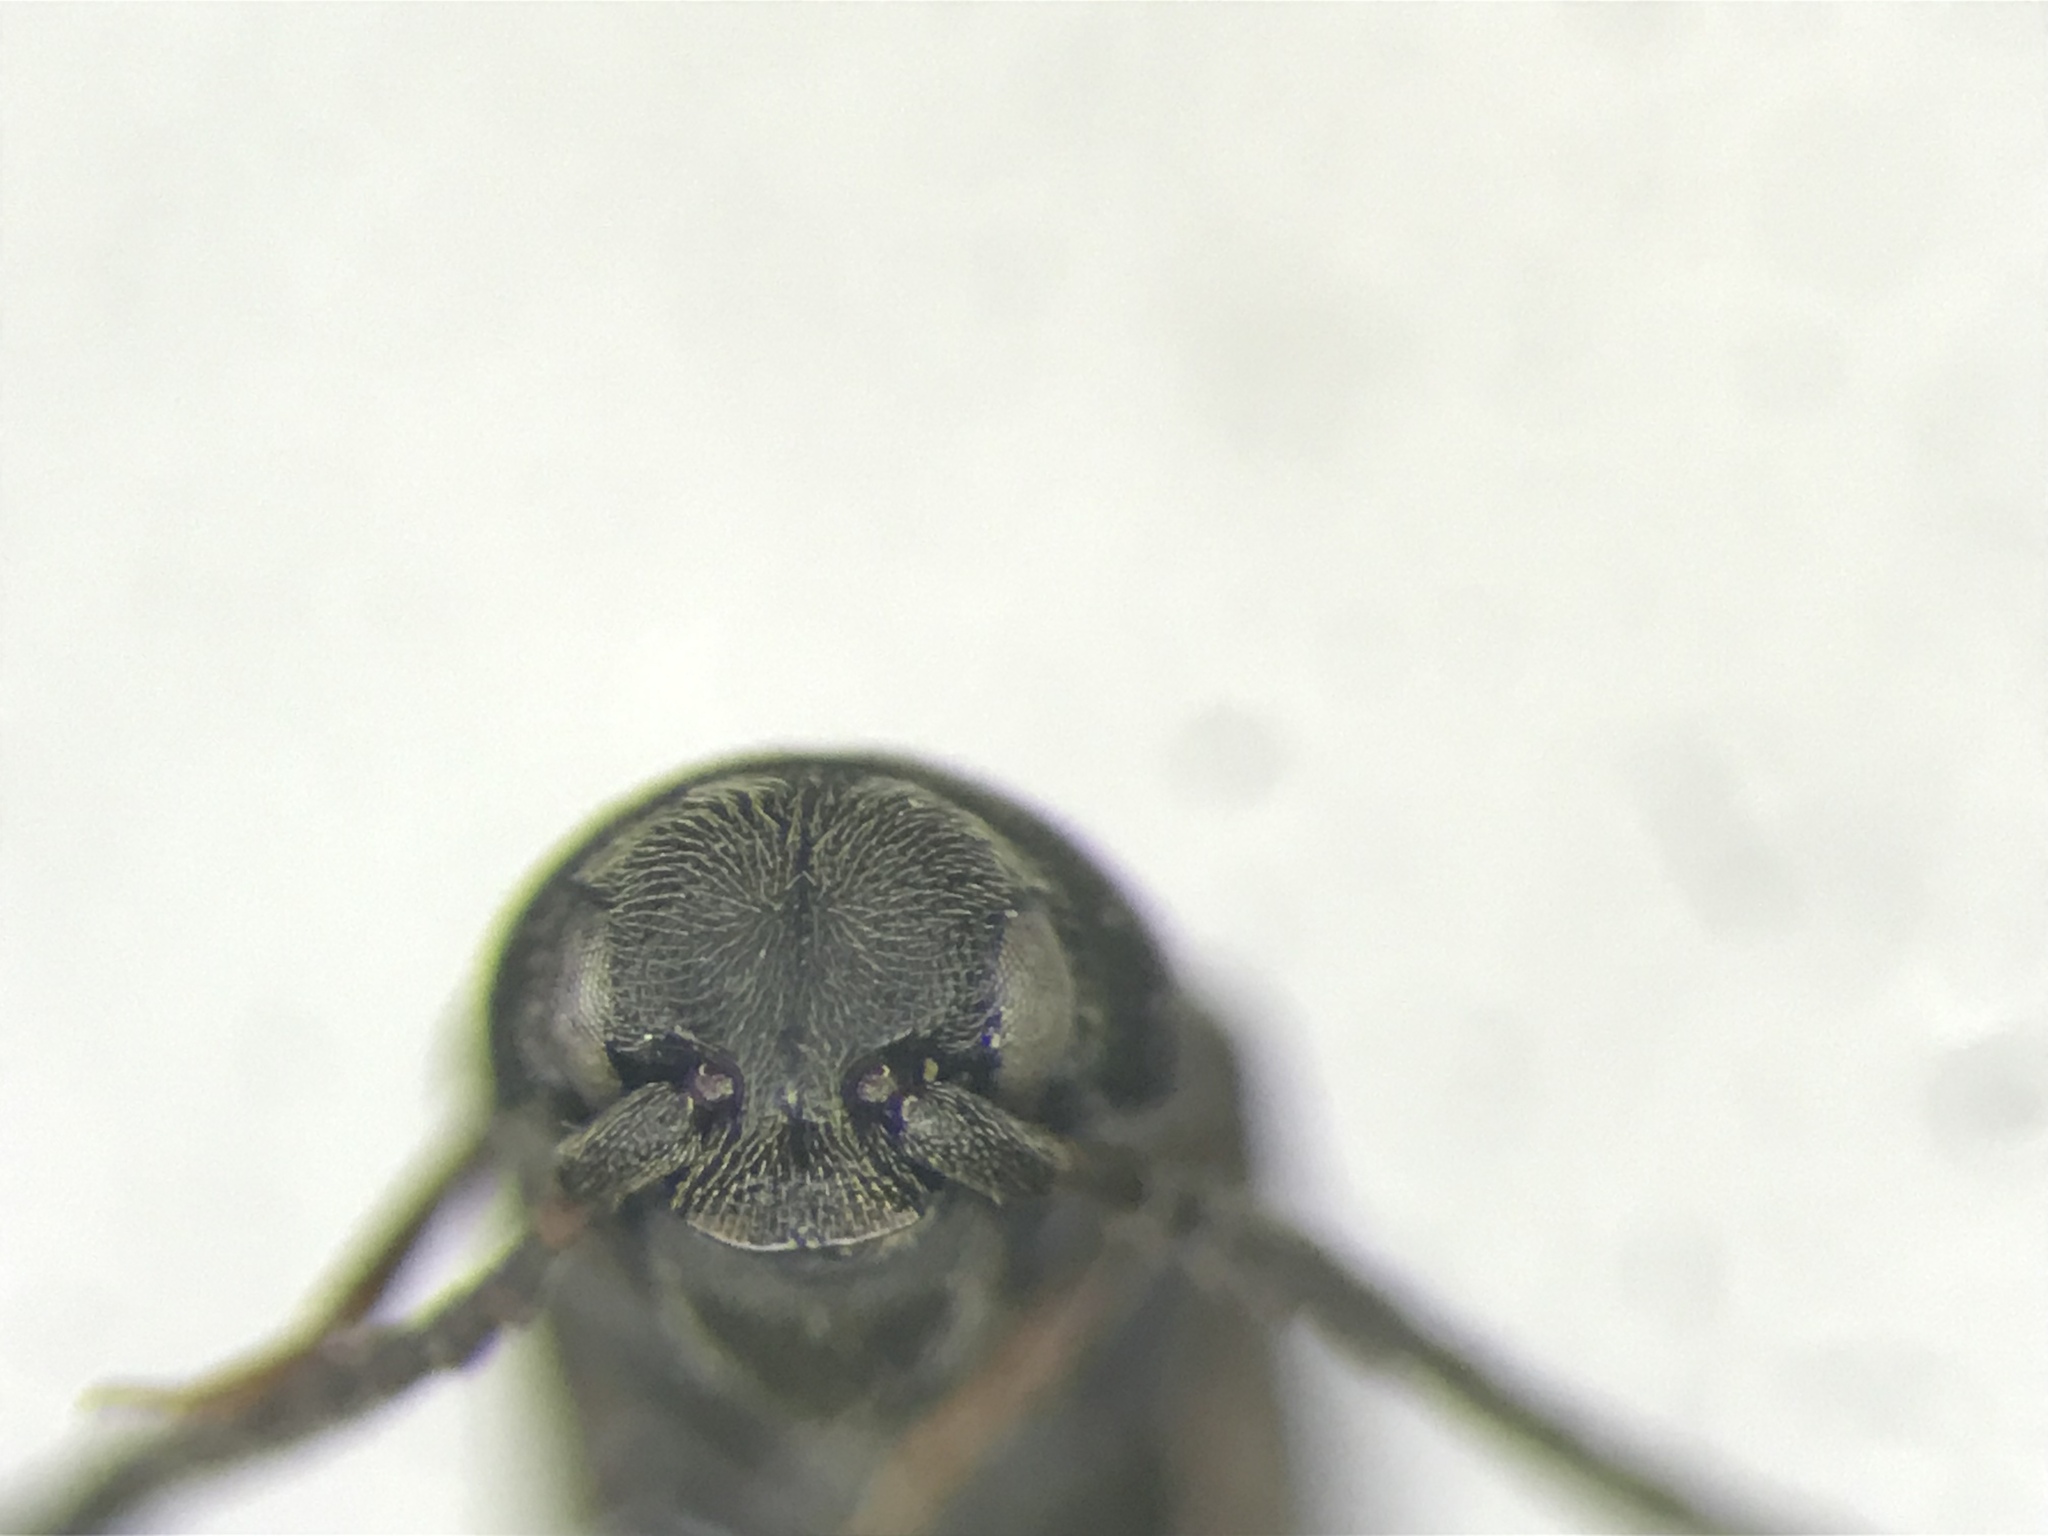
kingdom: Animalia
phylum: Arthropoda
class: Insecta
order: Coleoptera
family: Eucnemidae
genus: Hylis
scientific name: Hylis terminalis
